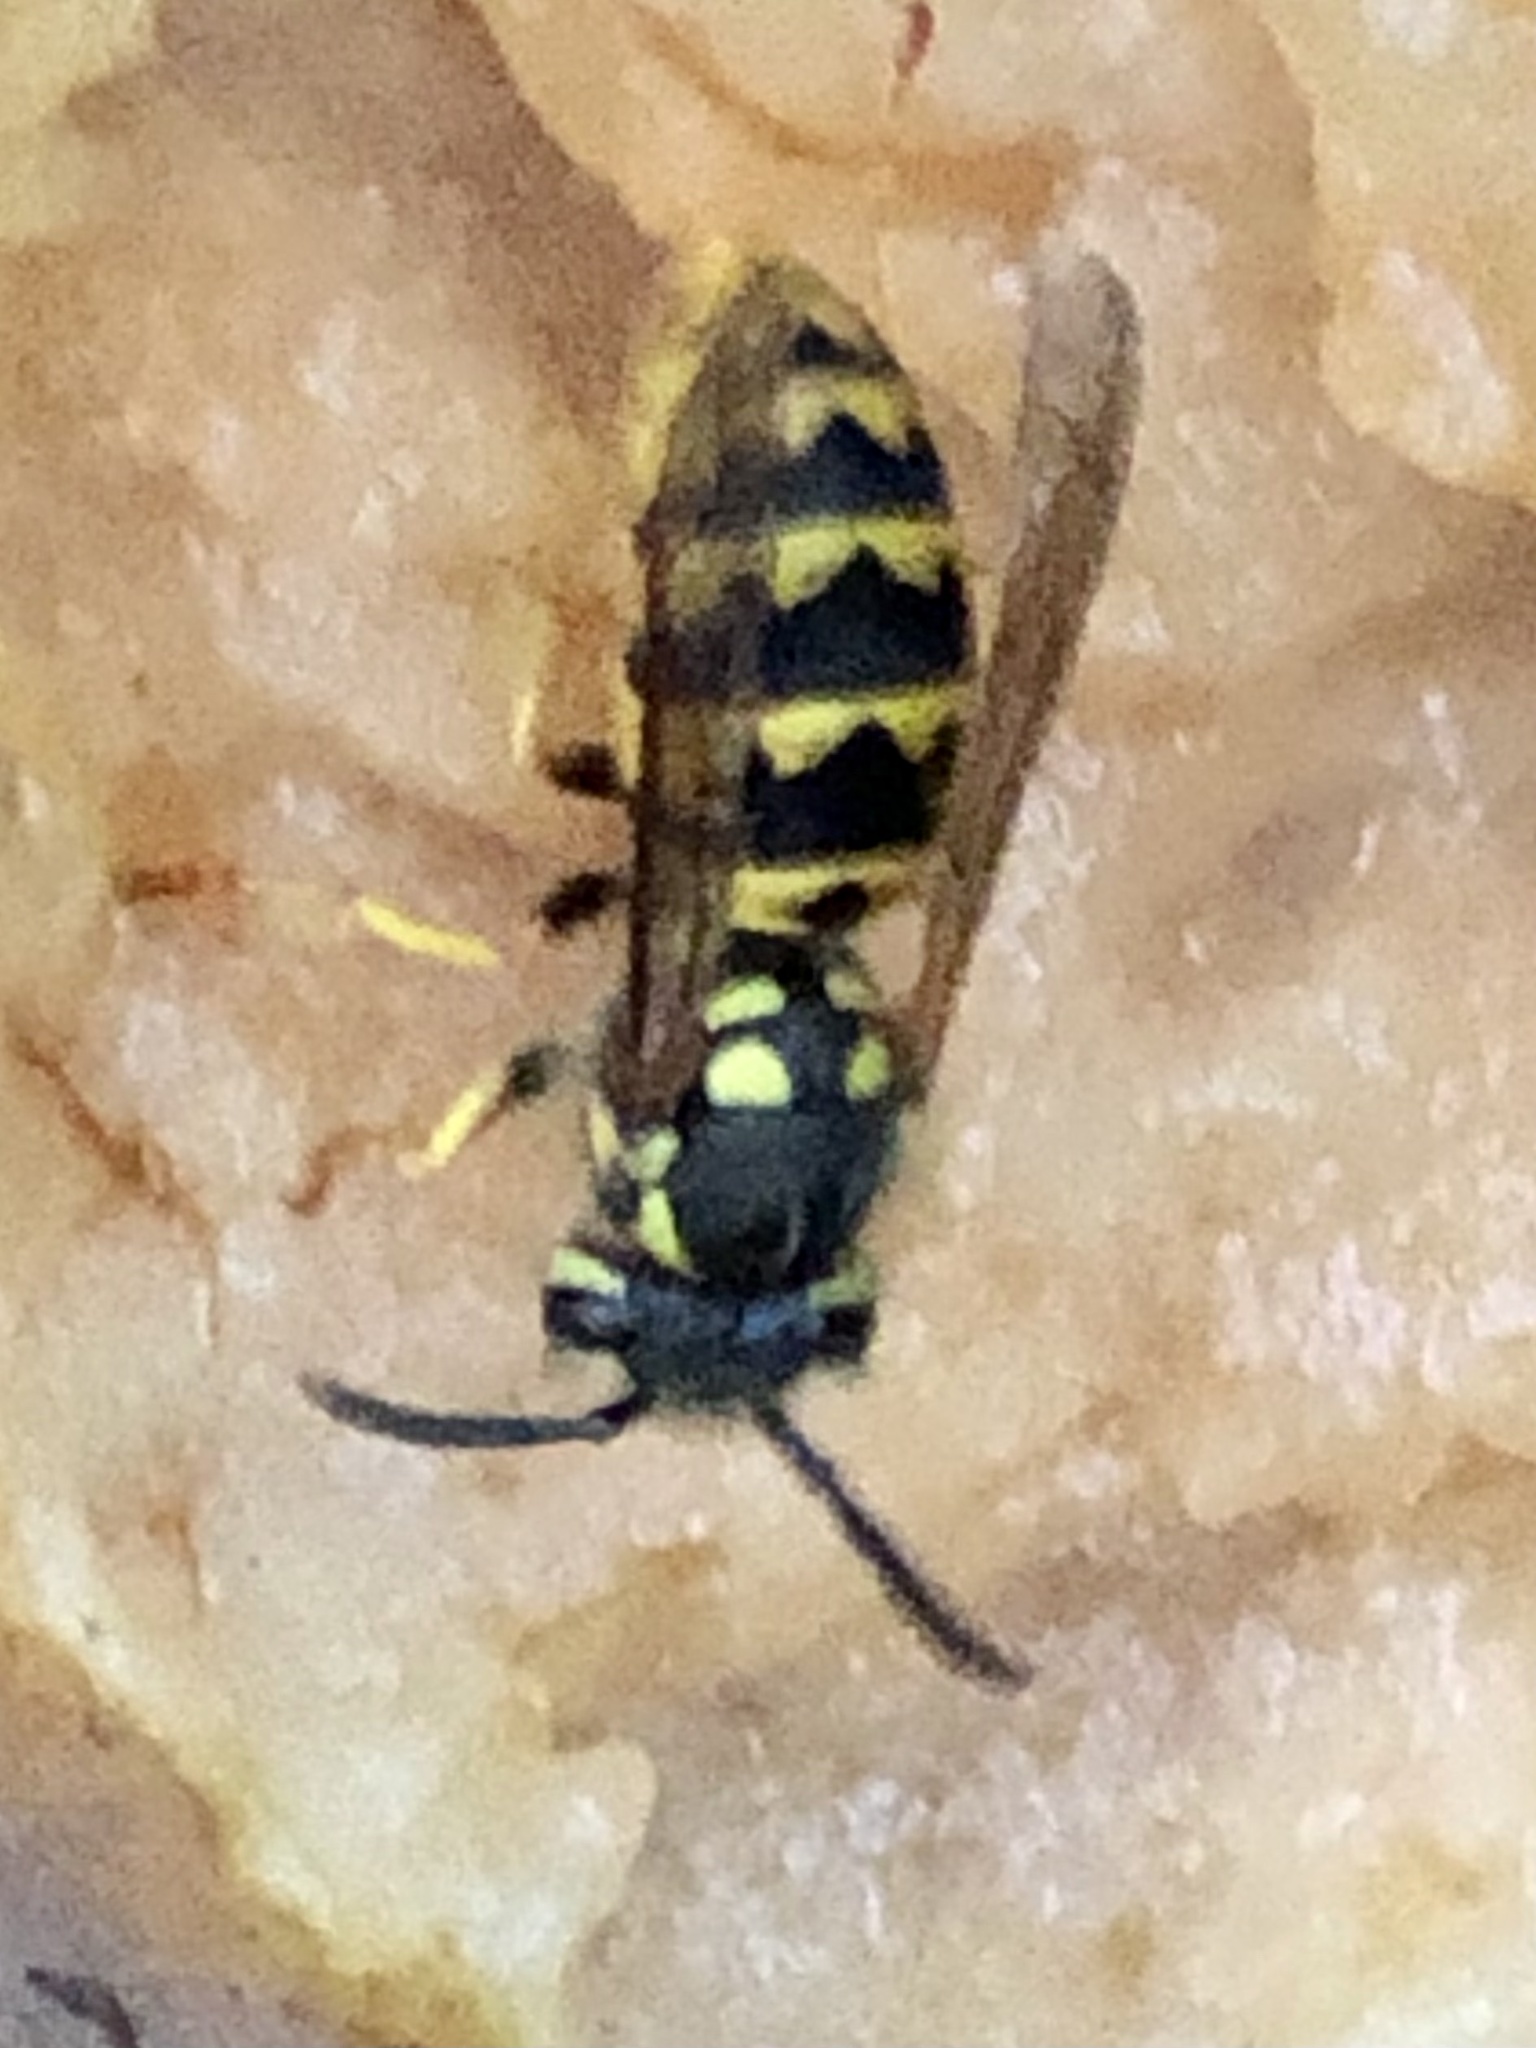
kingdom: Animalia
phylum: Arthropoda
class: Insecta
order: Hymenoptera
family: Vespidae
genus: Vespula
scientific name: Vespula germanica
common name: German wasp
